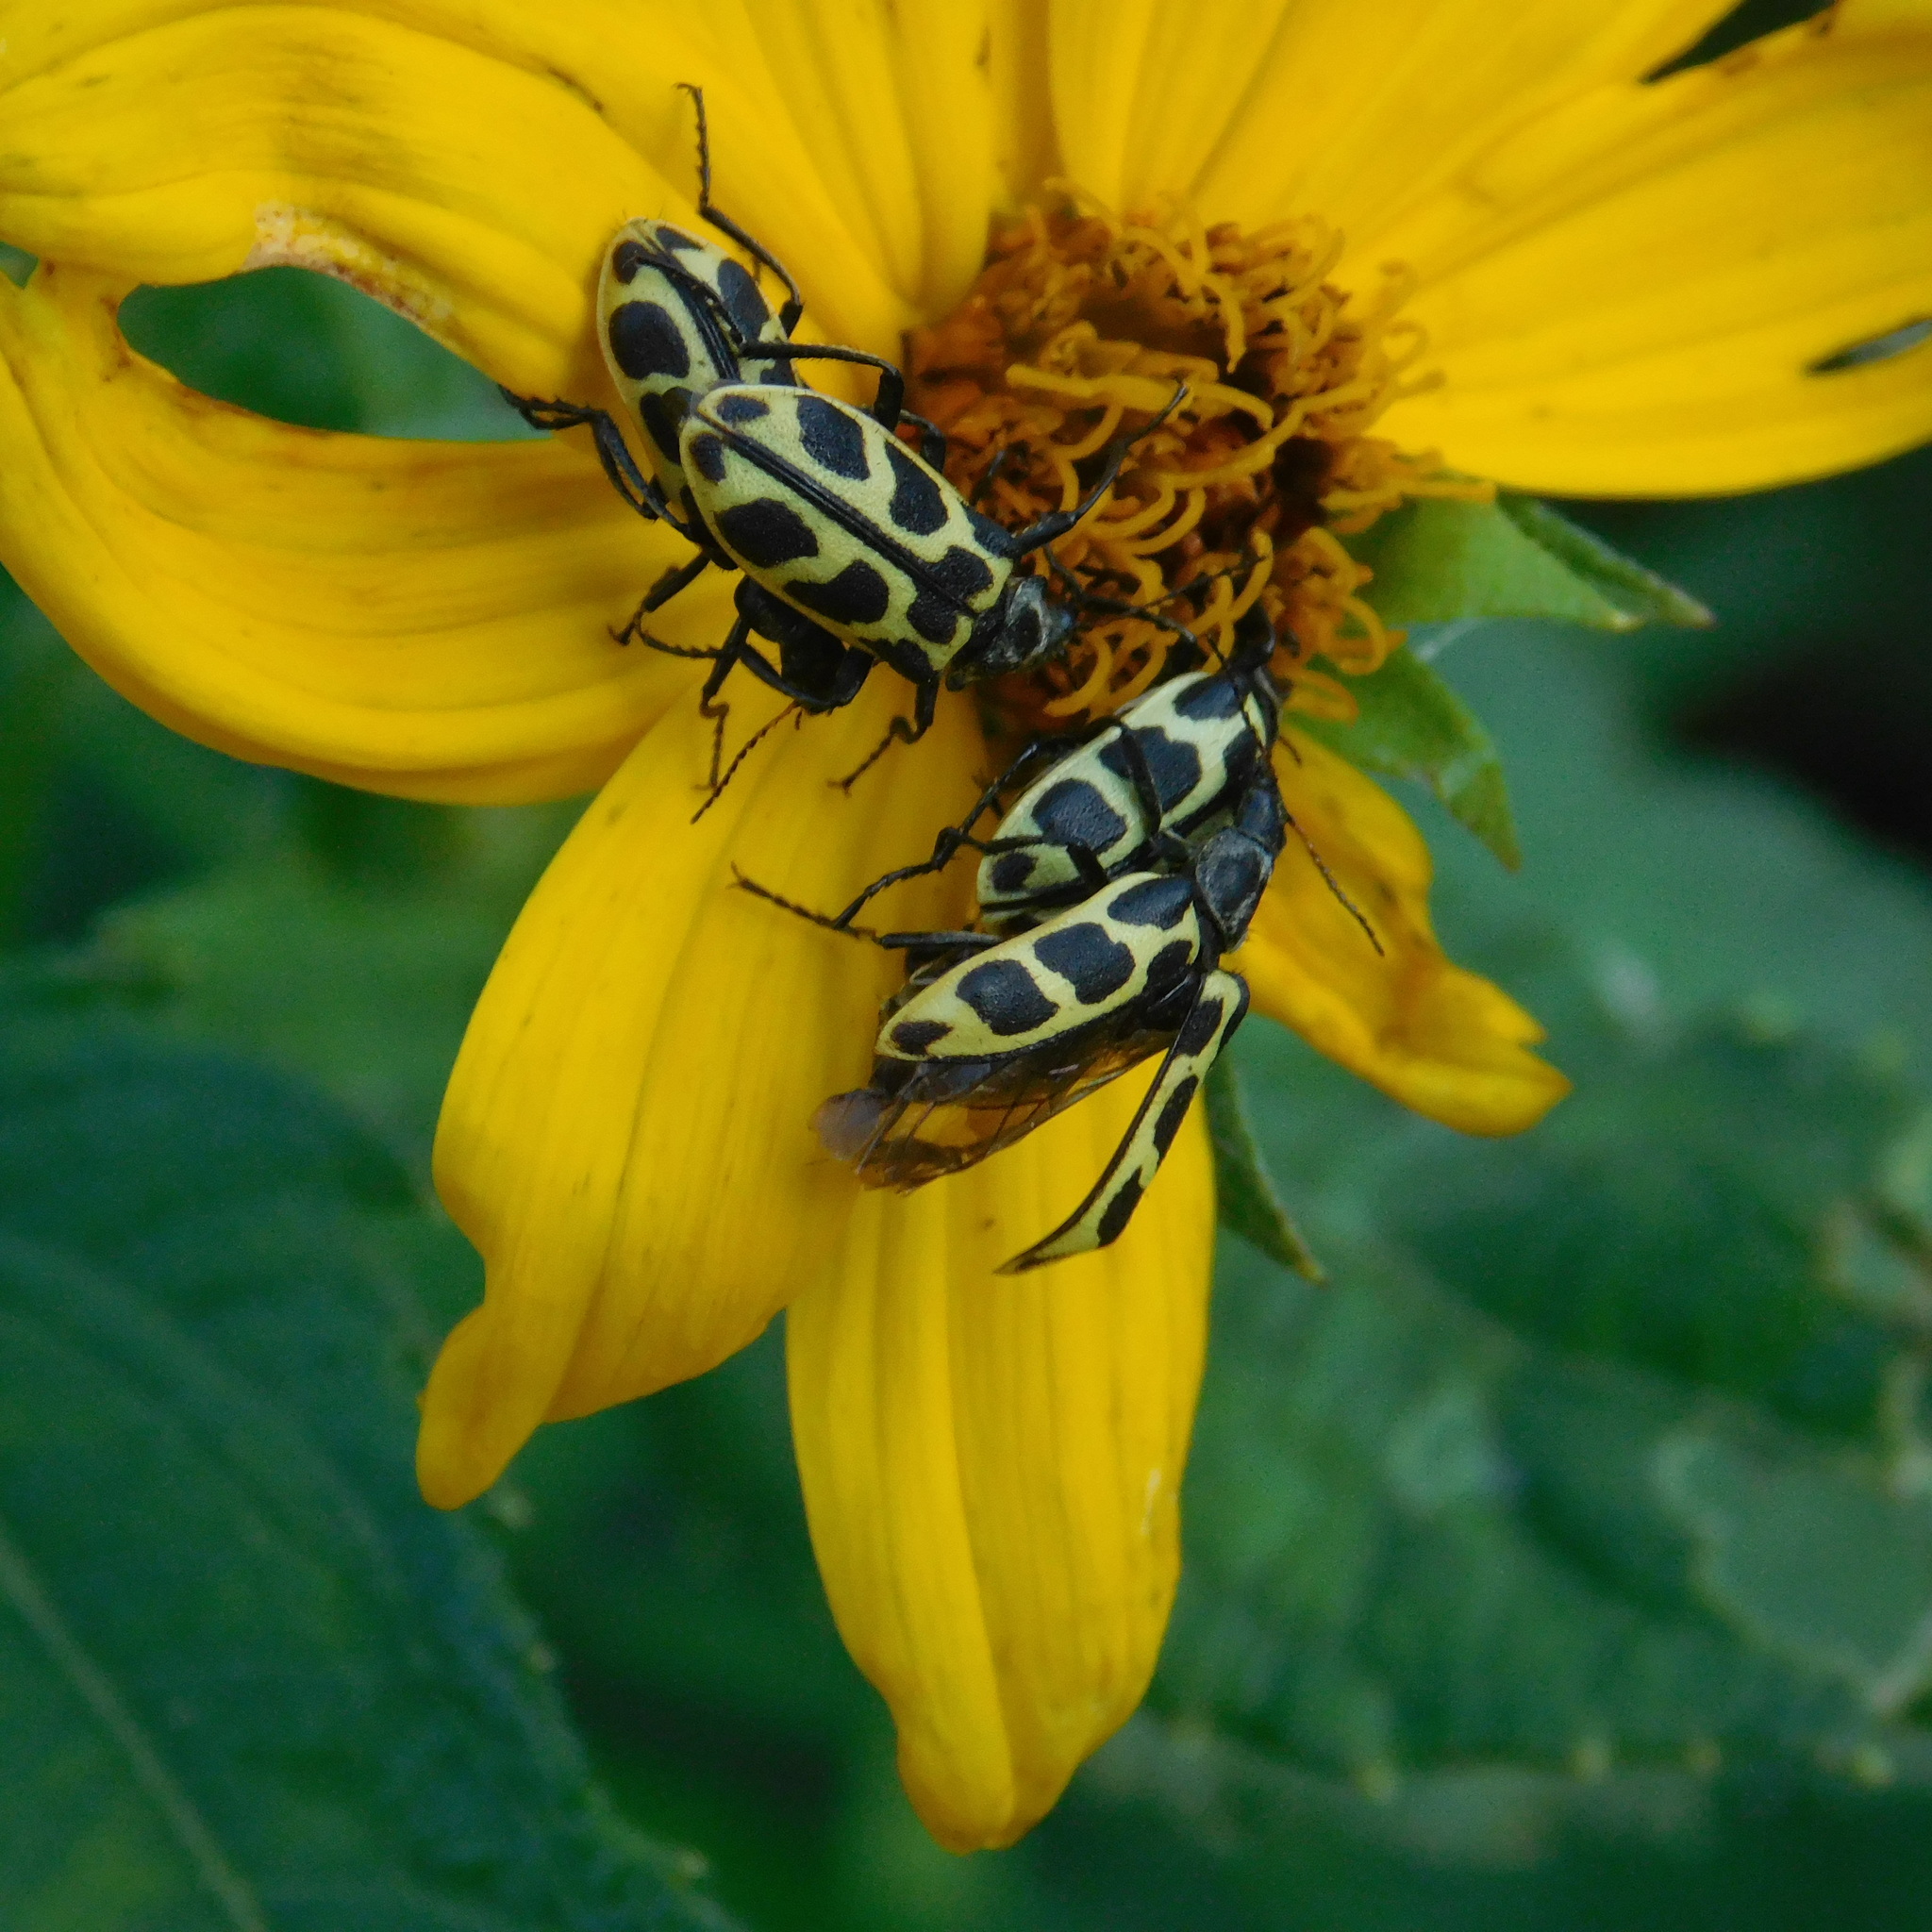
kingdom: Animalia
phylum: Arthropoda
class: Insecta
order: Coleoptera
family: Melyridae
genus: Astylus
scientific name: Astylus atromaculatus
